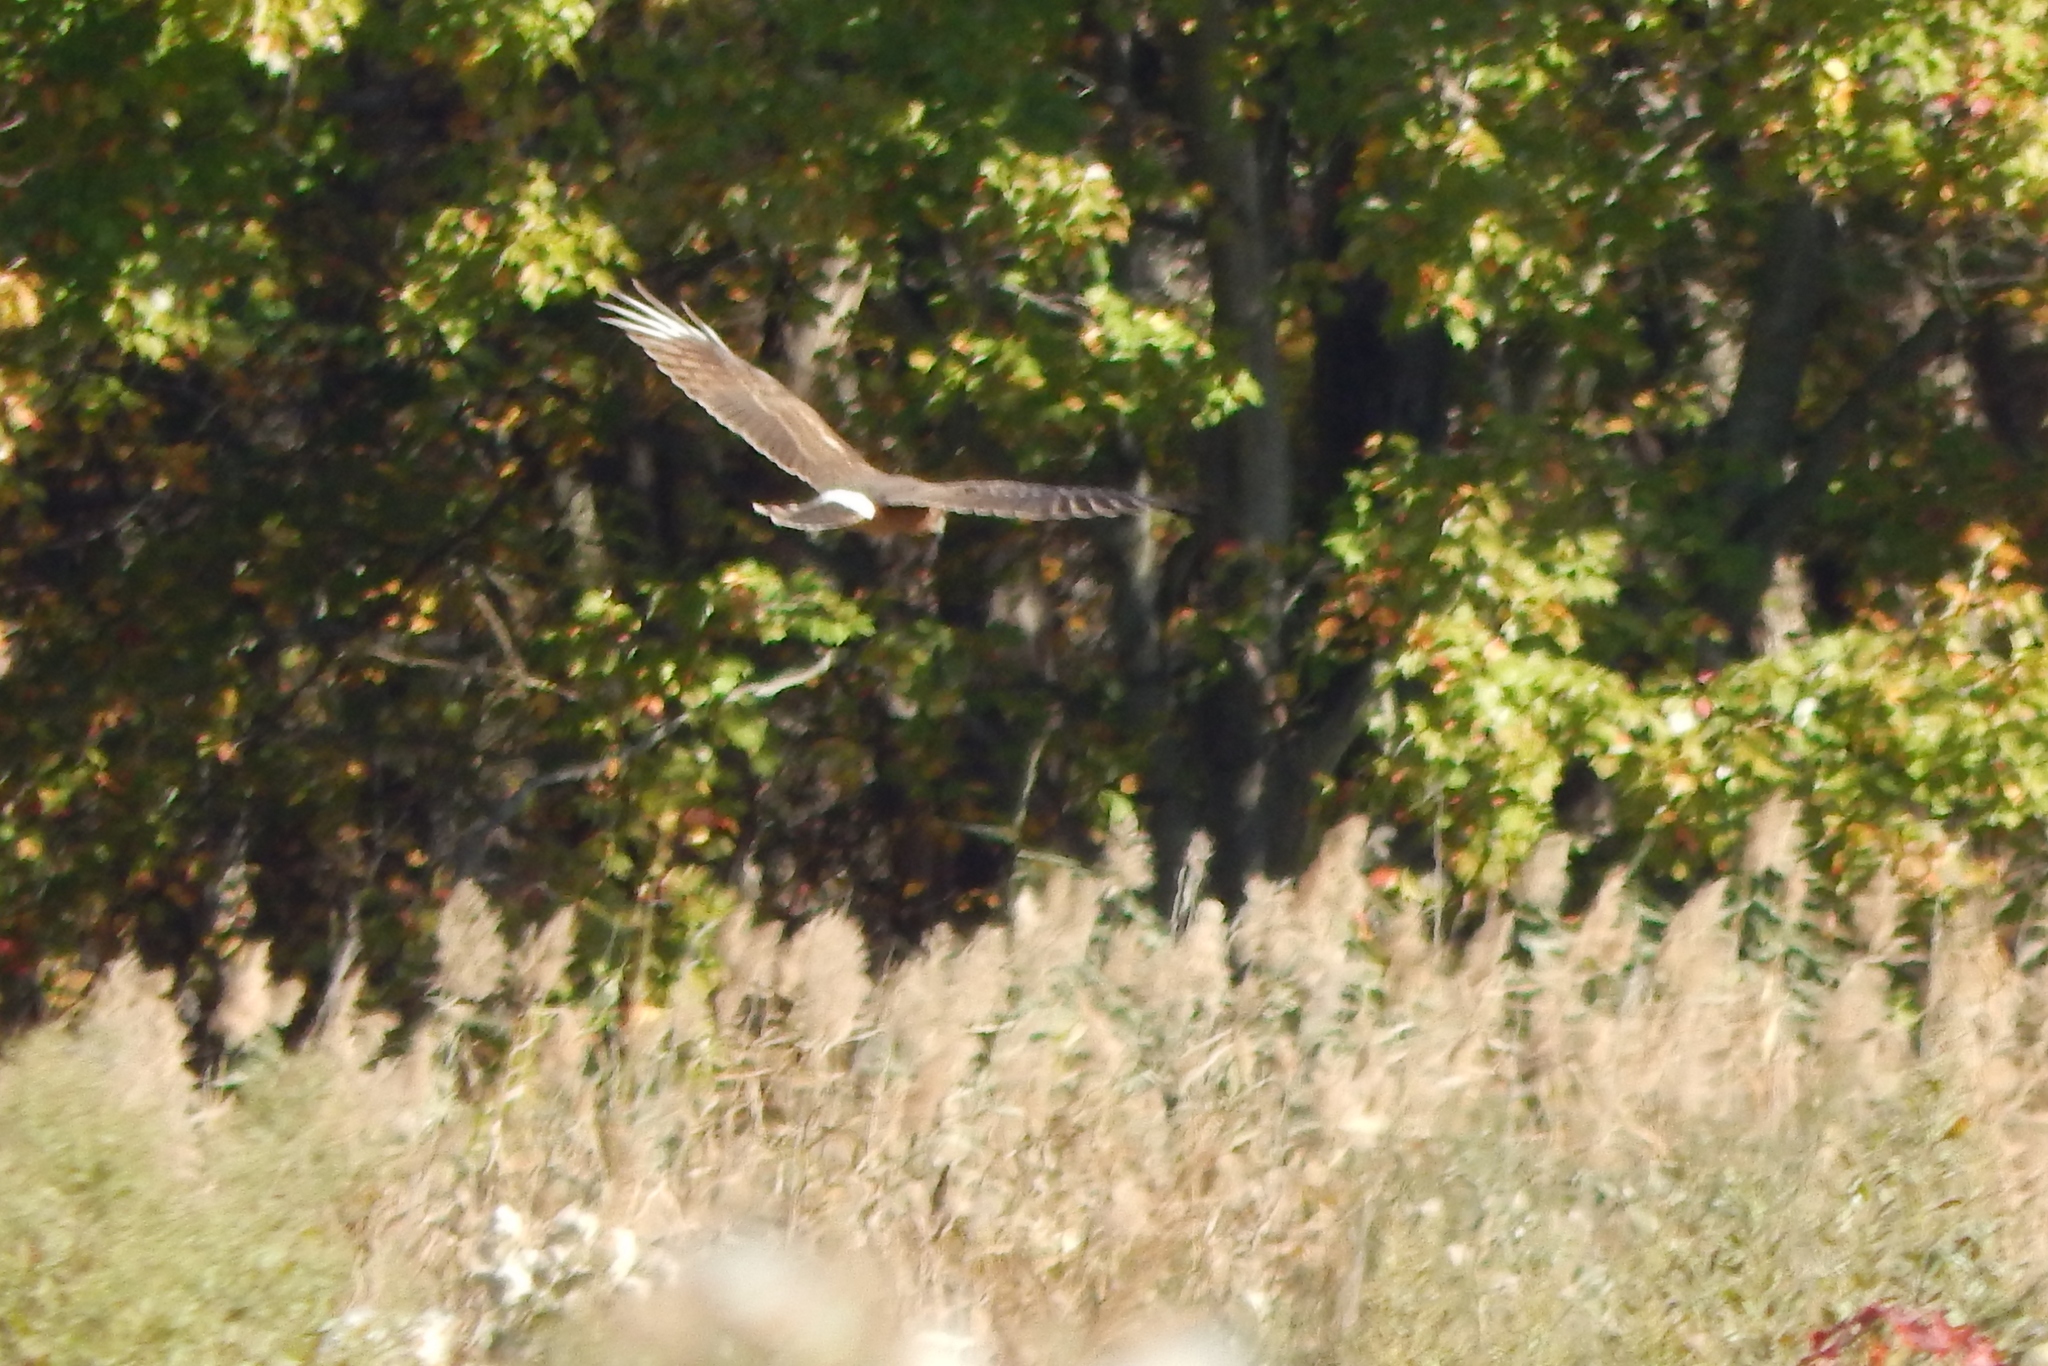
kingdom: Animalia
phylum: Chordata
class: Aves
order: Accipitriformes
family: Accipitridae
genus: Circus
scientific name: Circus cyaneus
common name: Hen harrier
